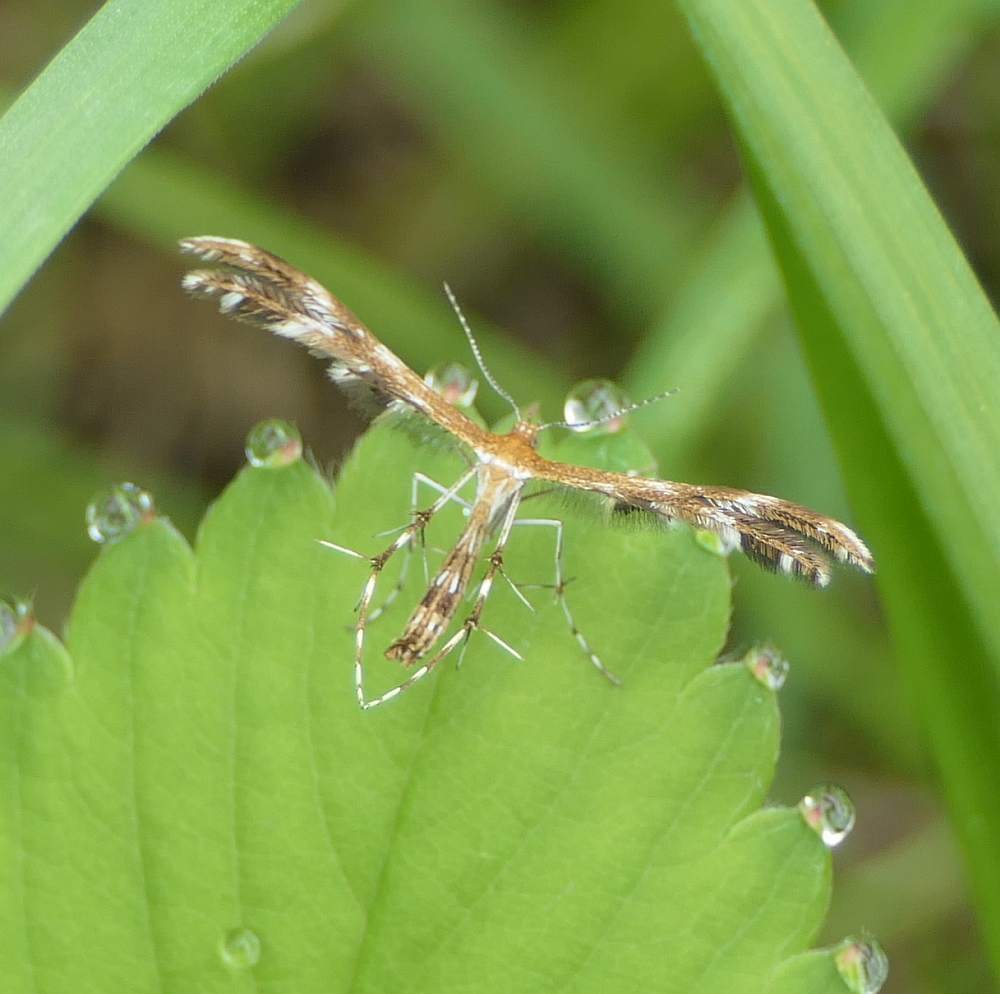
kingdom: Animalia
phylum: Arthropoda
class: Insecta
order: Lepidoptera
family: Pterophoridae
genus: Dejongia
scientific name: Dejongia lobidactylus
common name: Lobed plume moth
